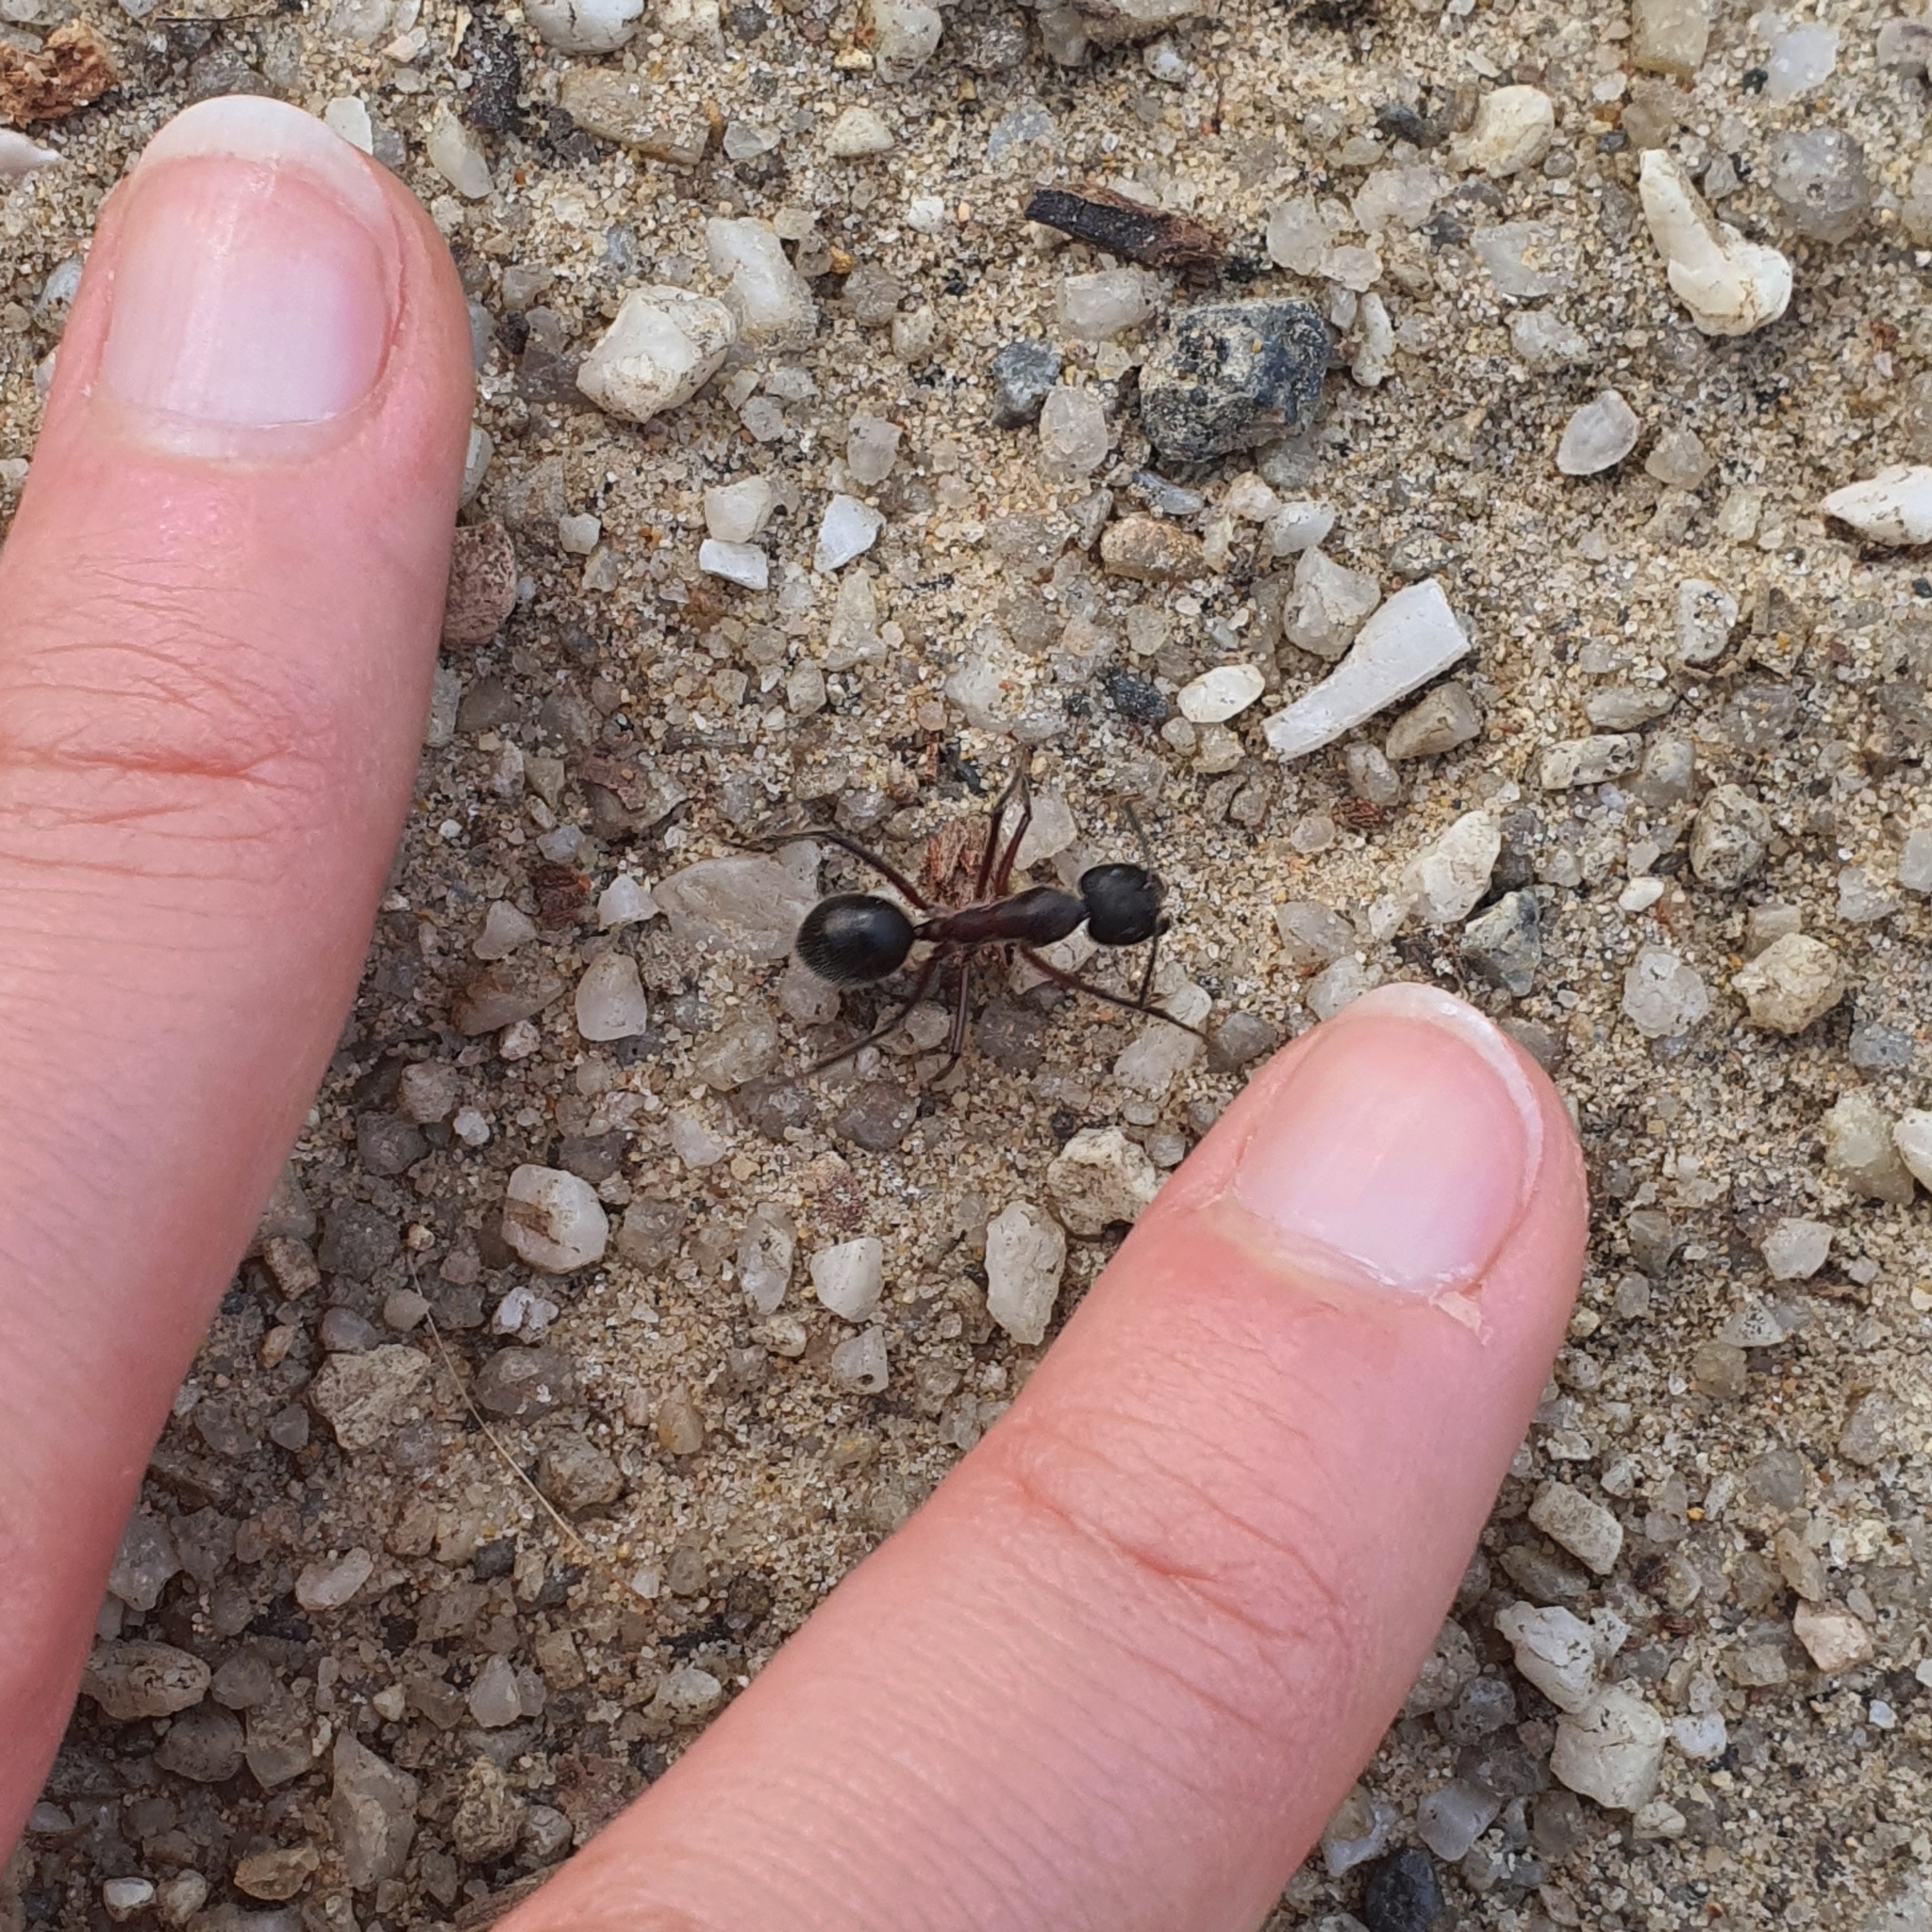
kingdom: Animalia
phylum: Arthropoda
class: Insecta
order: Hymenoptera
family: Formicidae
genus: Camponotus
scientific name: Camponotus intrepidus
